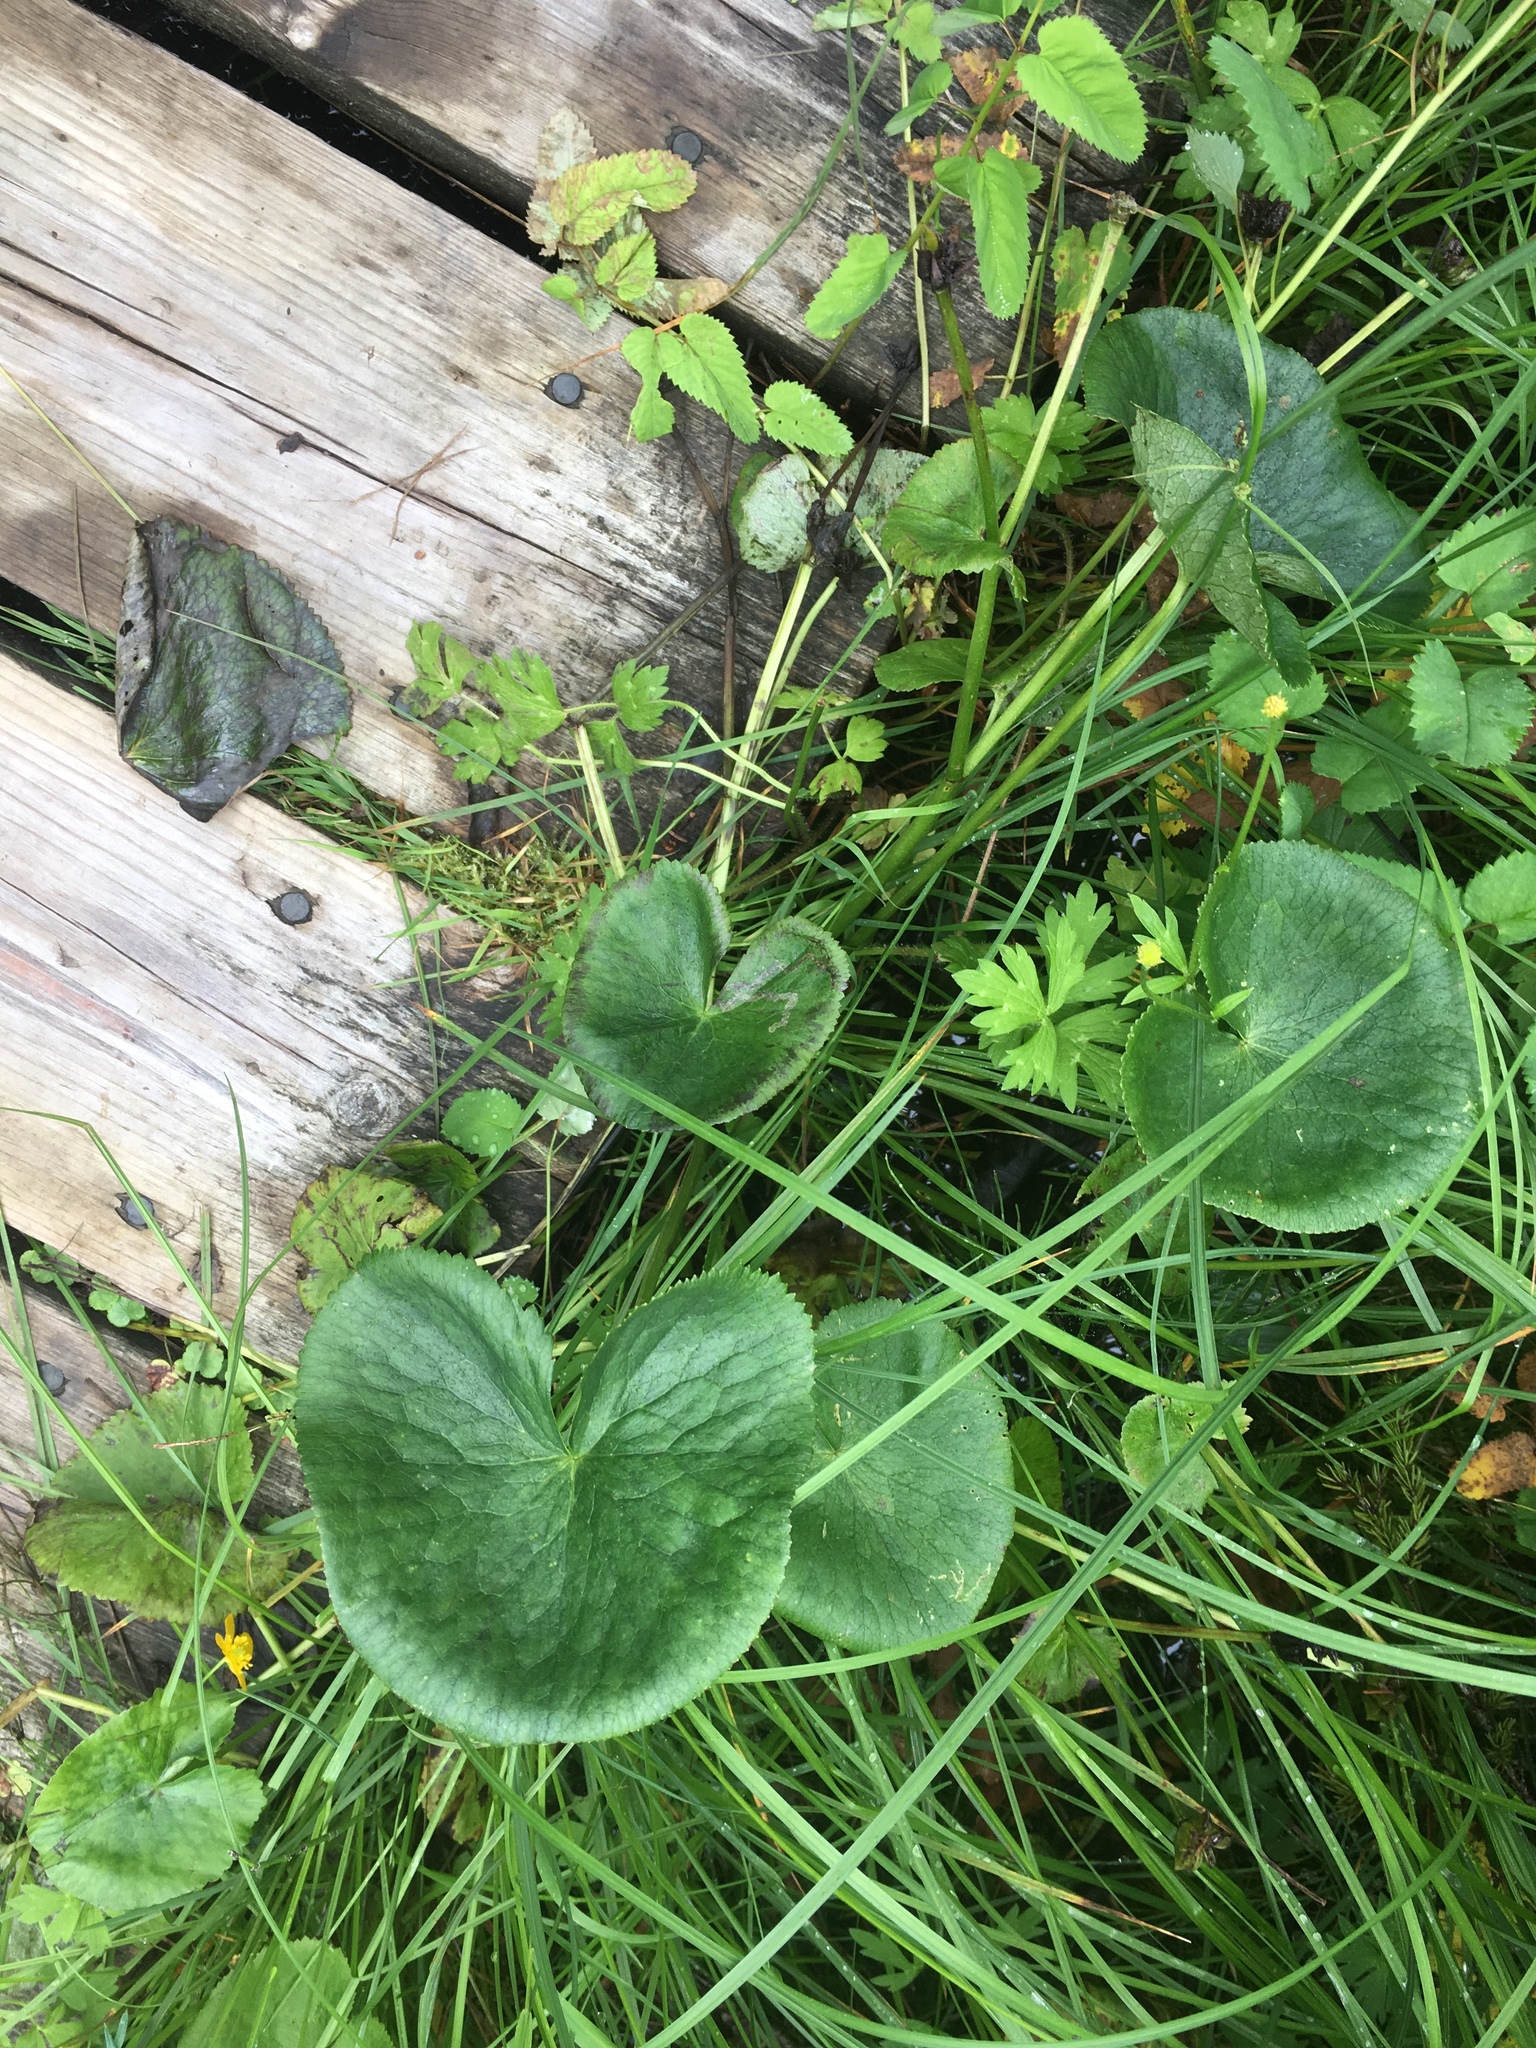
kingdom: Plantae
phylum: Tracheophyta
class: Magnoliopsida
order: Ranunculales
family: Ranunculaceae
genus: Caltha
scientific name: Caltha palustris
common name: Marsh marigold
